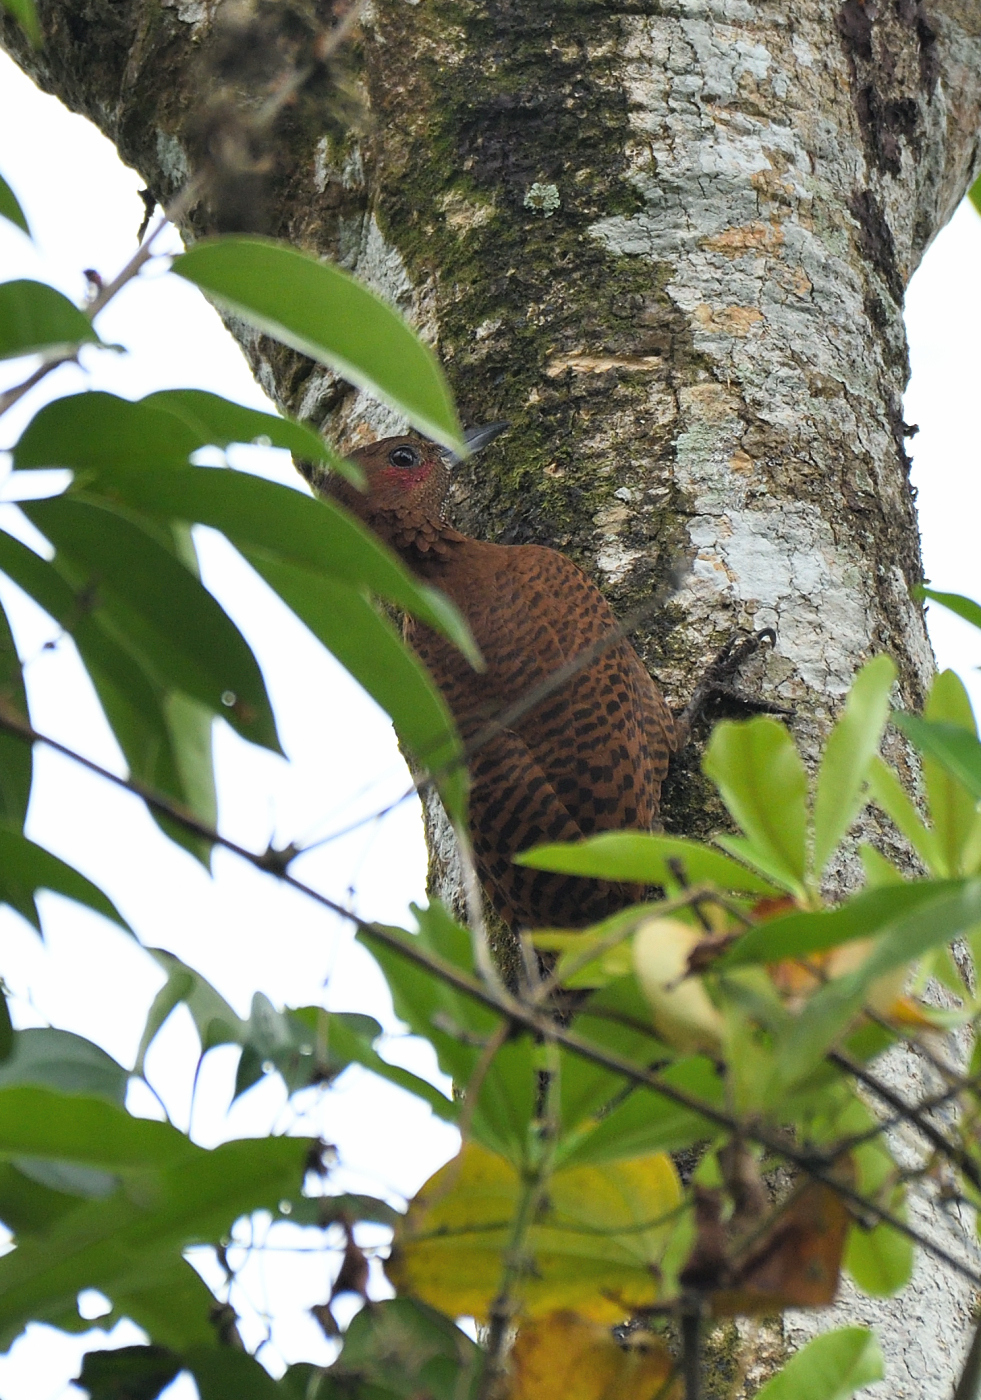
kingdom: Animalia
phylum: Chordata
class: Aves
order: Piciformes
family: Picidae
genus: Micropternus
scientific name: Micropternus brachyurus
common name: Rufous woodpecker
